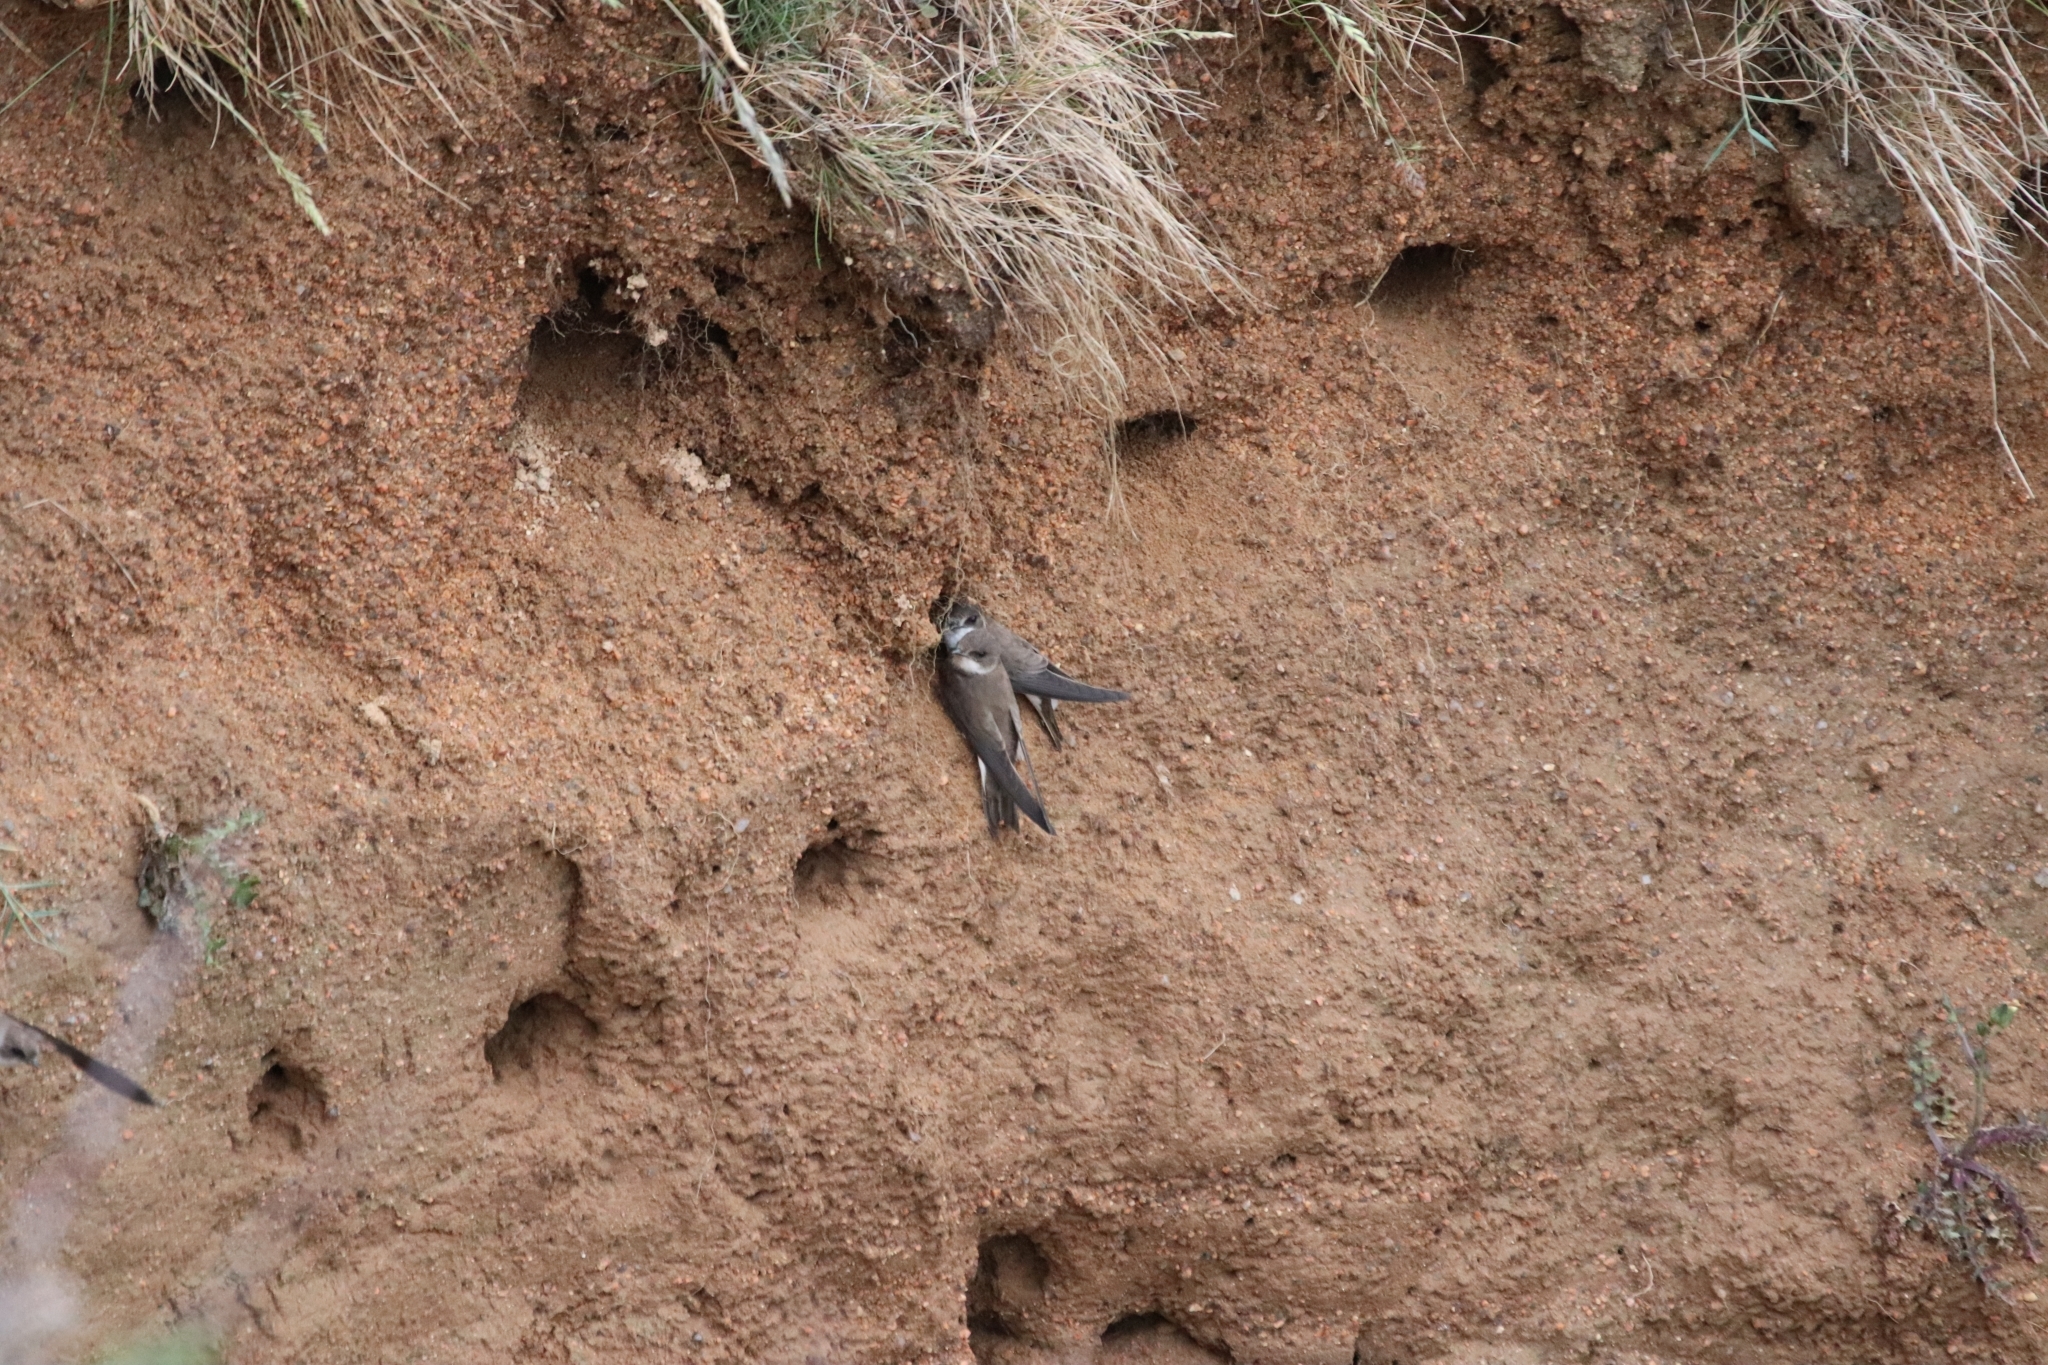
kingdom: Animalia
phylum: Chordata
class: Aves
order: Passeriformes
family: Hirundinidae
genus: Riparia
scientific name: Riparia riparia
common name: Sand martin
